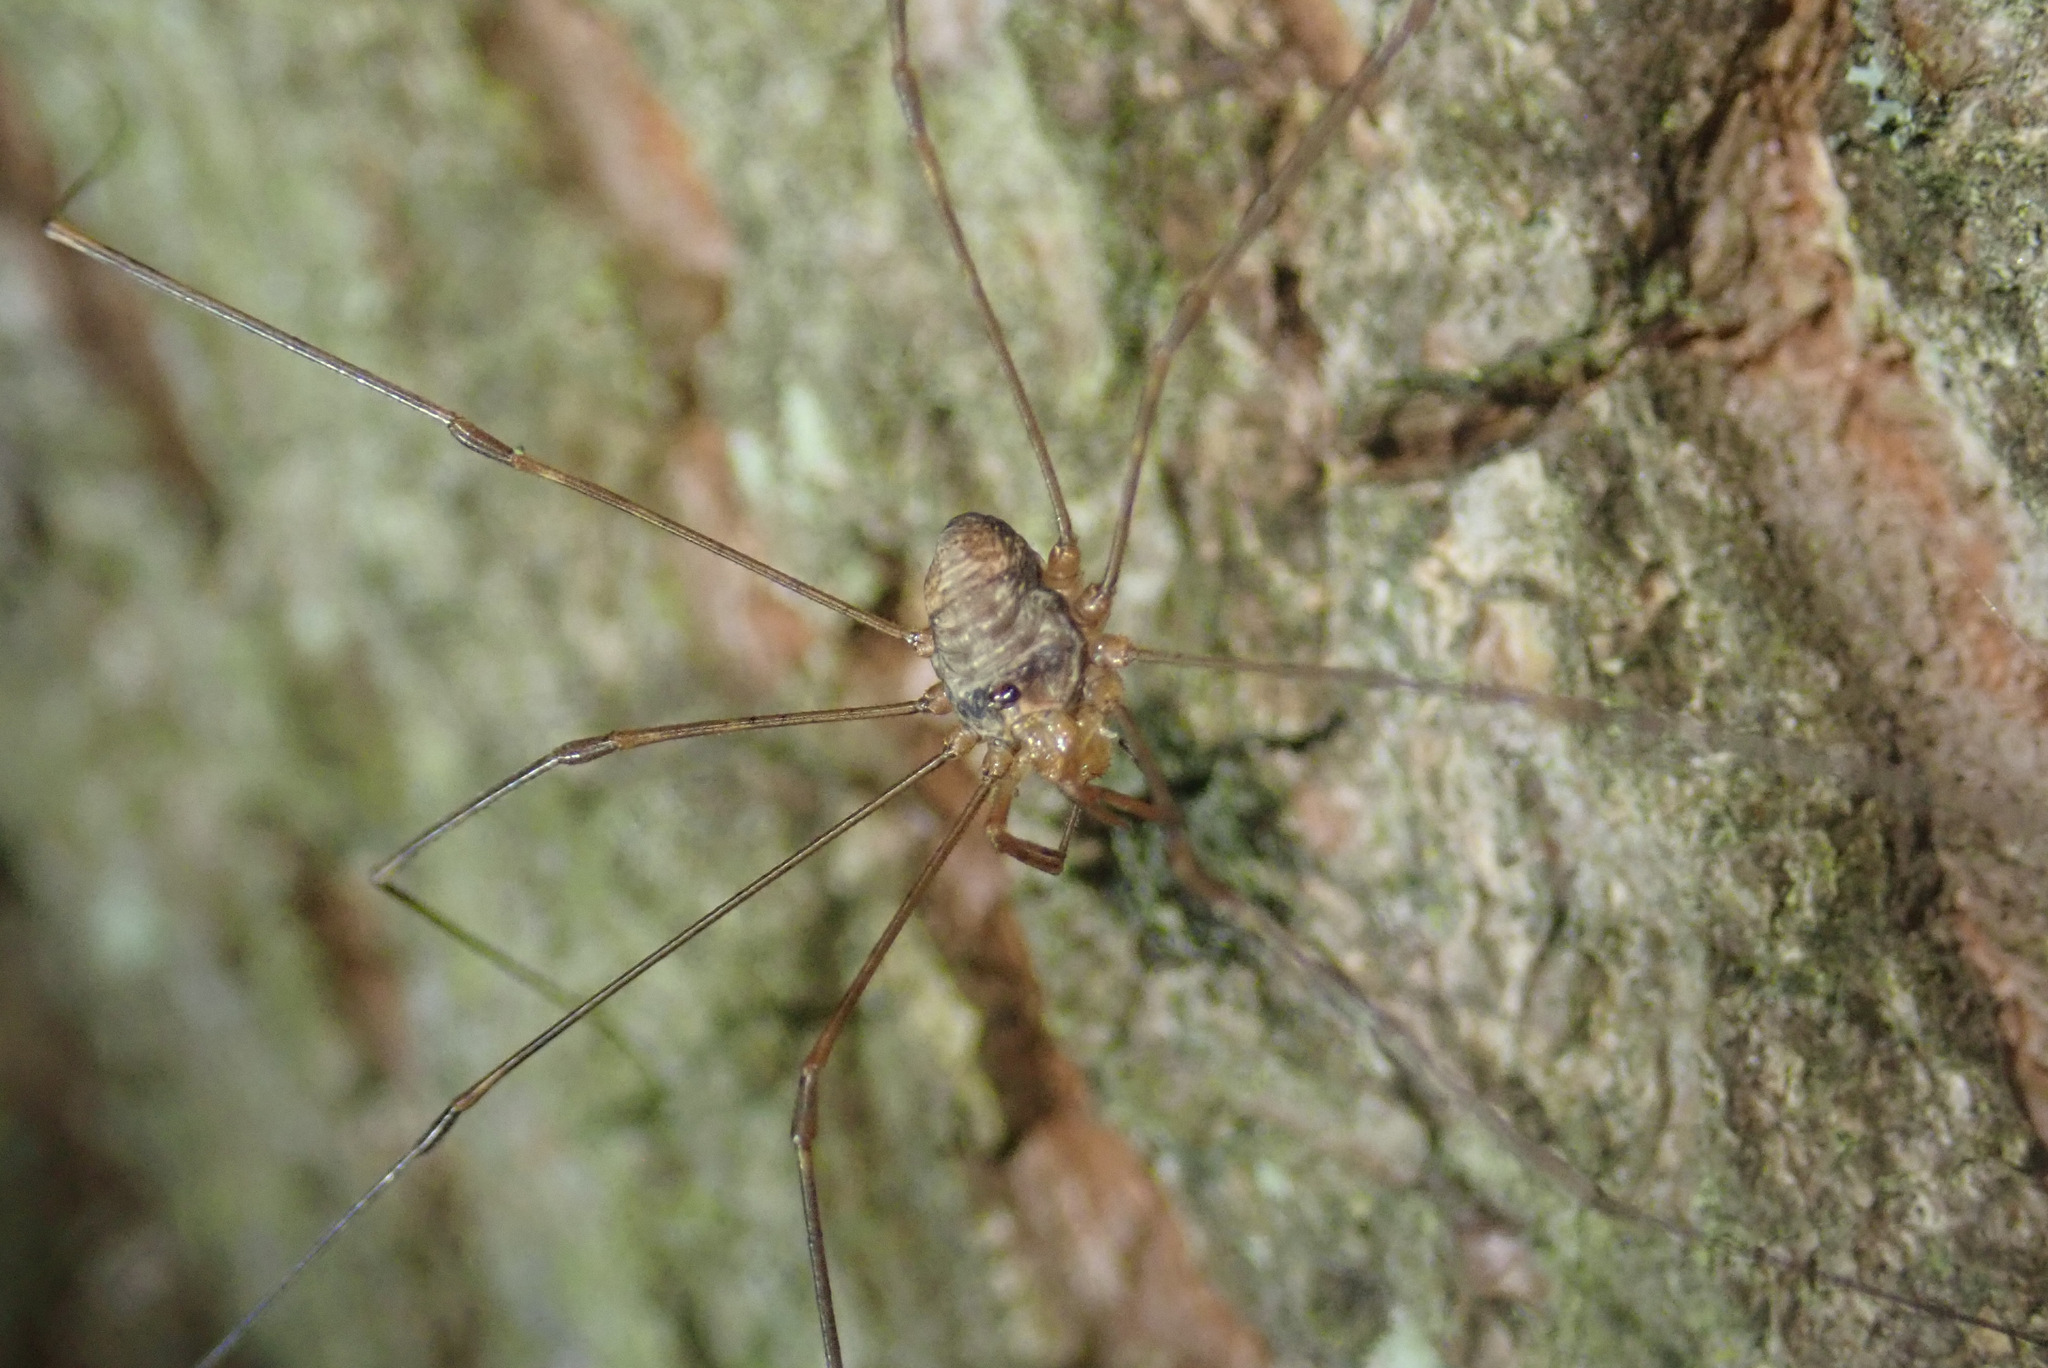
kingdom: Animalia
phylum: Arthropoda
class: Arachnida
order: Opiliones
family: Phalangiidae
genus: Dicranopalpus
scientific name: Dicranopalpus ramosus
